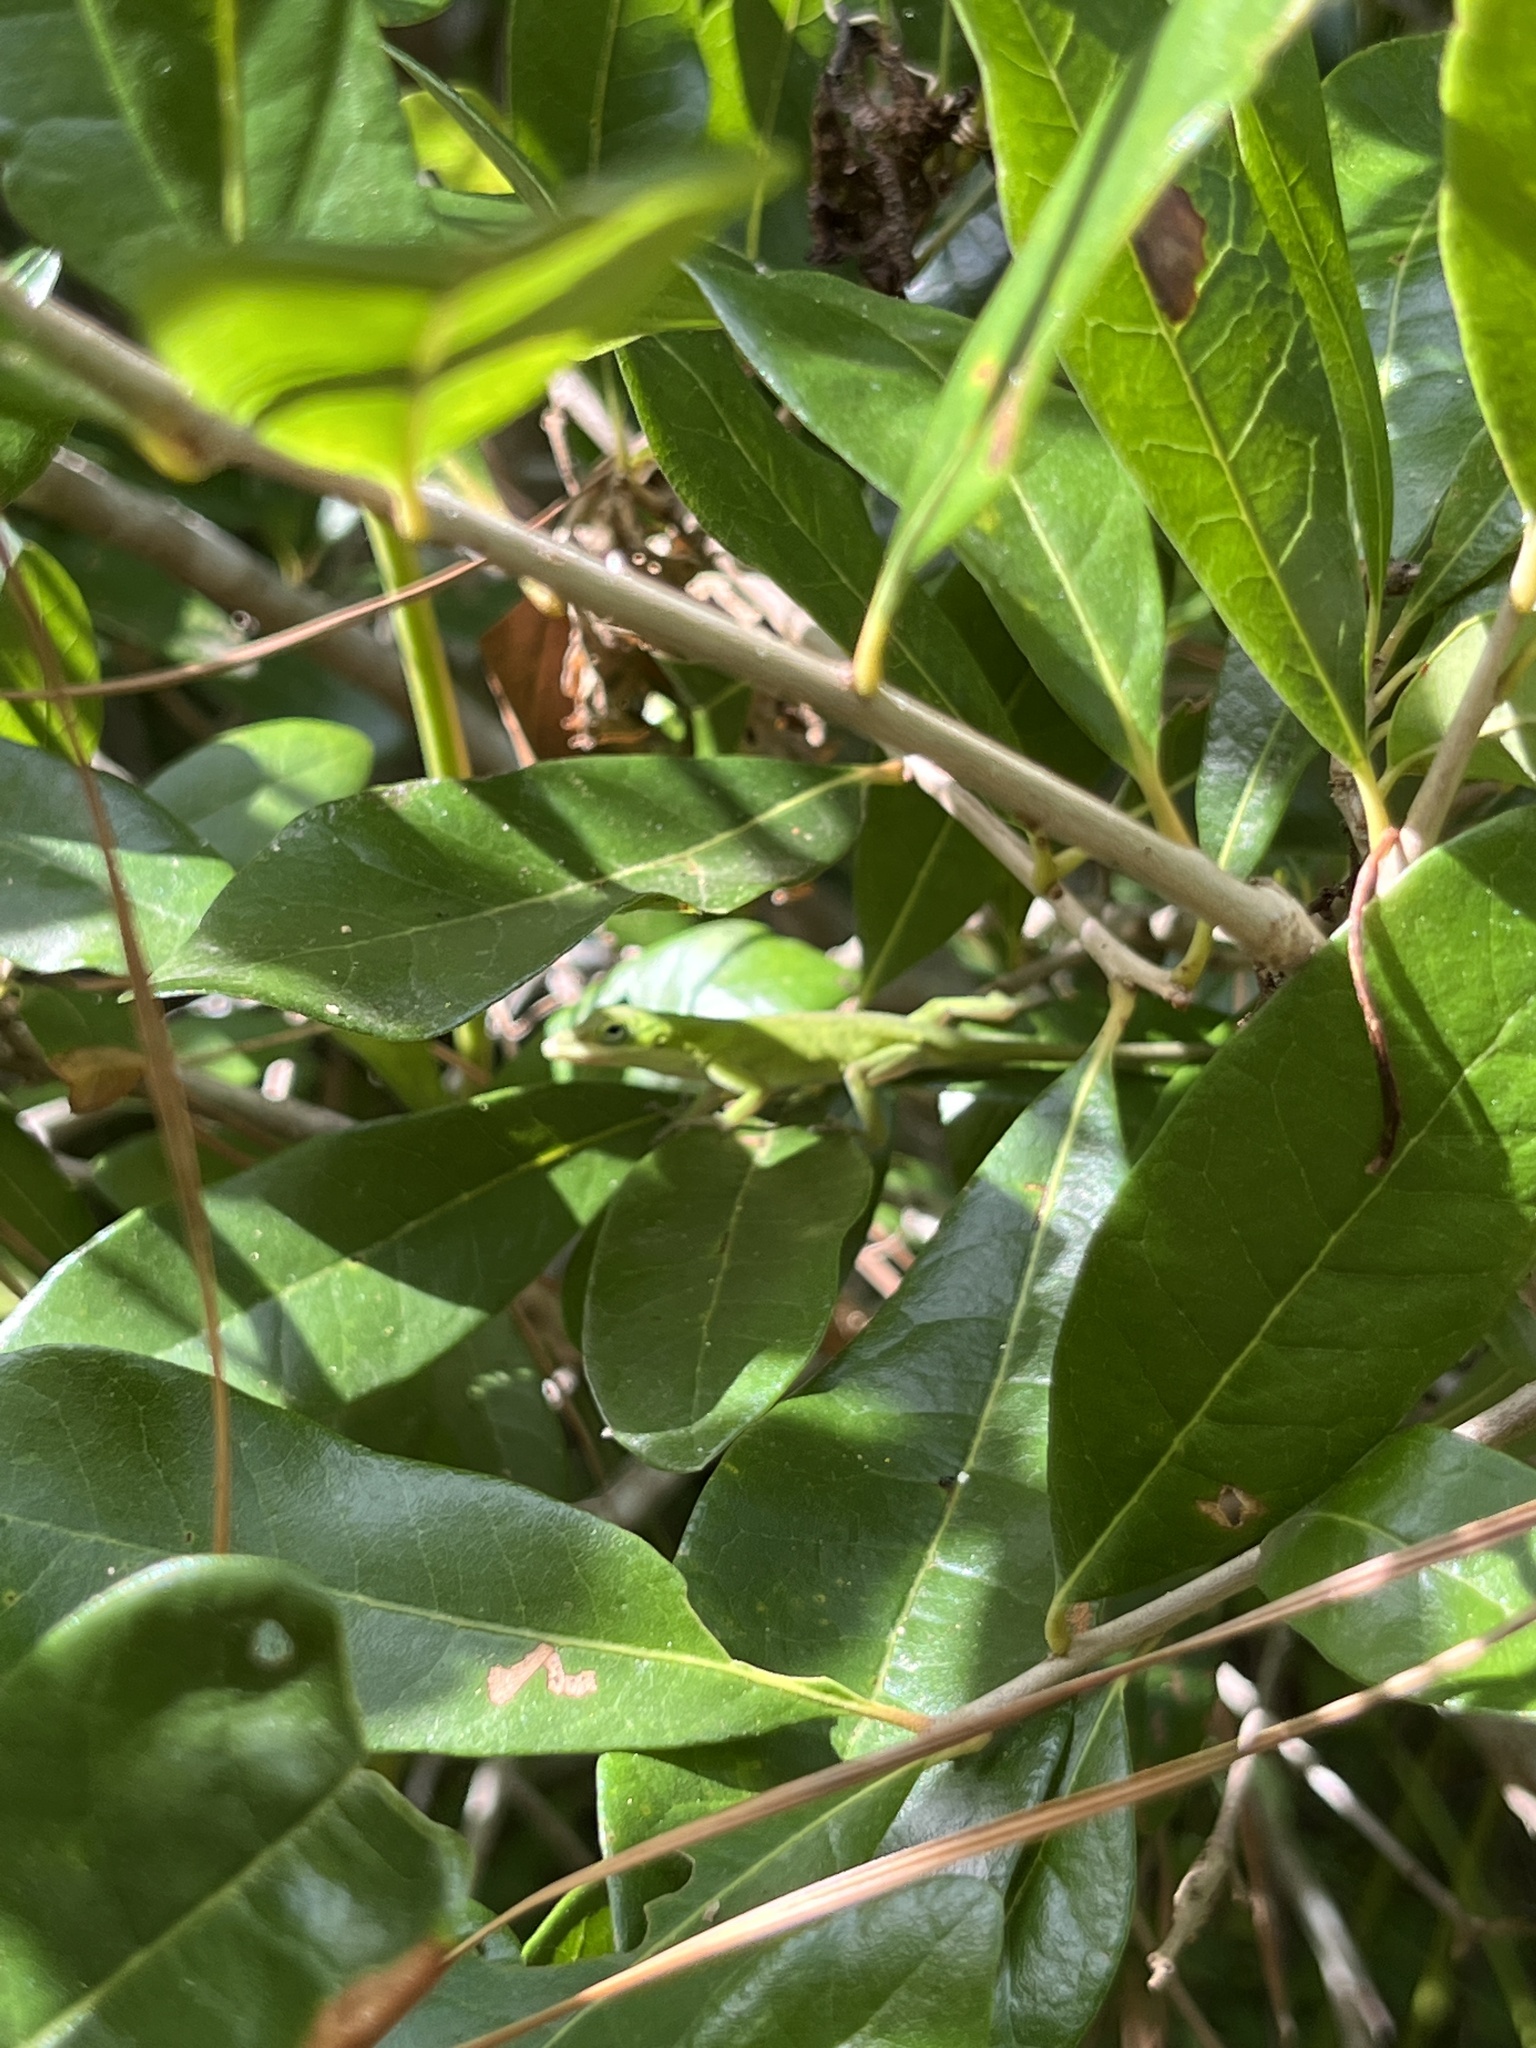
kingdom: Animalia
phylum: Chordata
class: Squamata
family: Dactyloidae
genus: Anolis
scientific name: Anolis carolinensis
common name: Green anole
